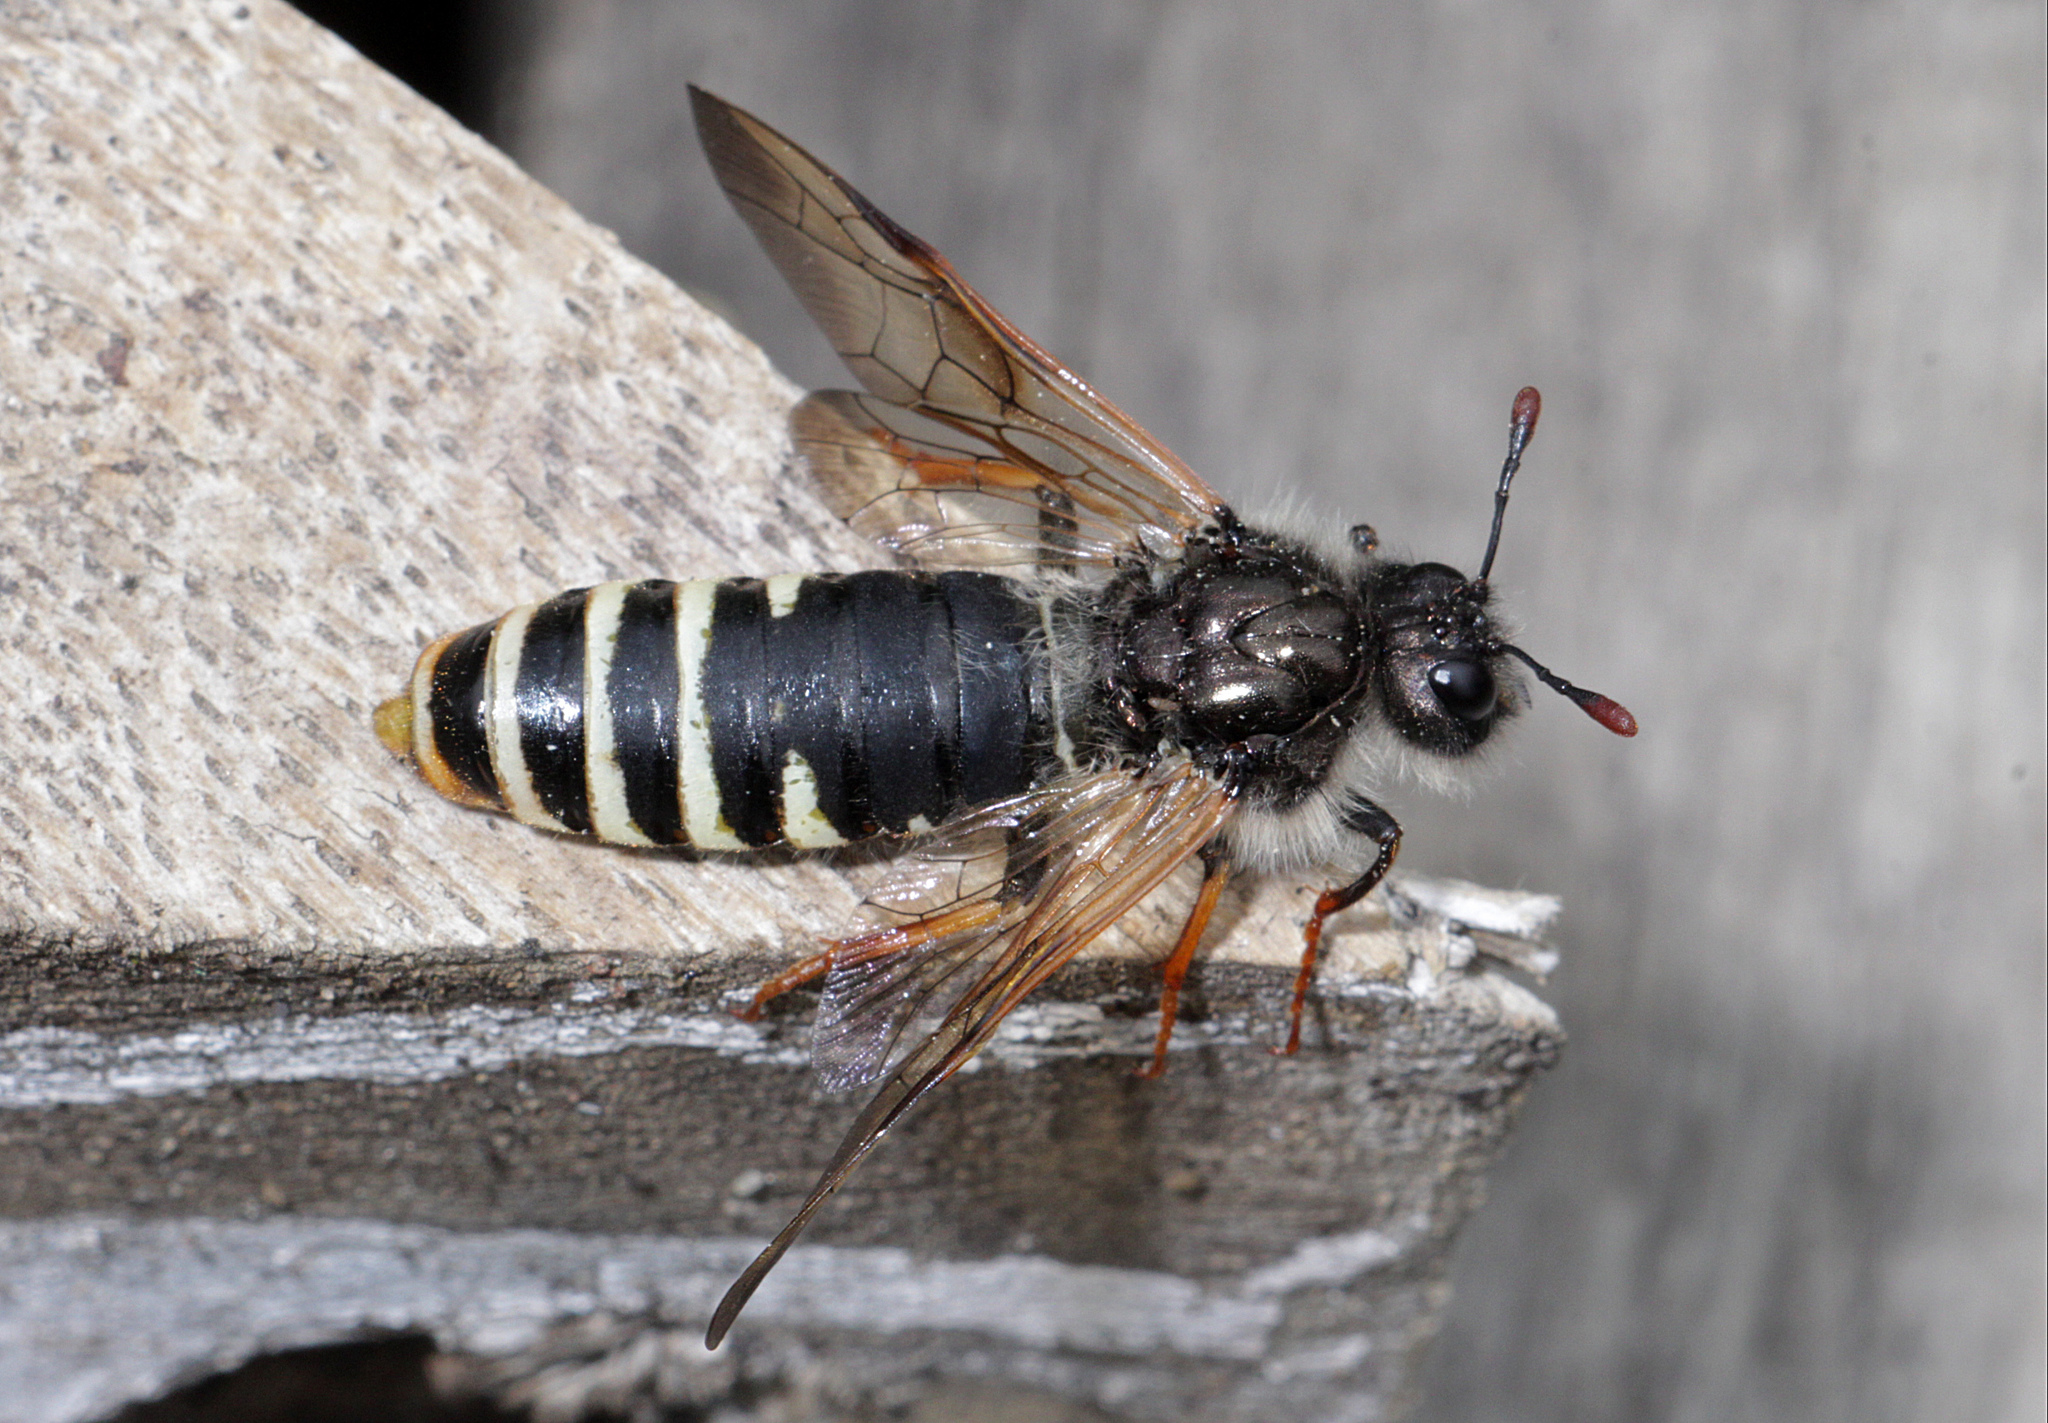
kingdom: Animalia
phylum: Arthropoda
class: Insecta
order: Hymenoptera
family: Cimbicidae
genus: Pseudoclavellaria
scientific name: Pseudoclavellaria amerinae
